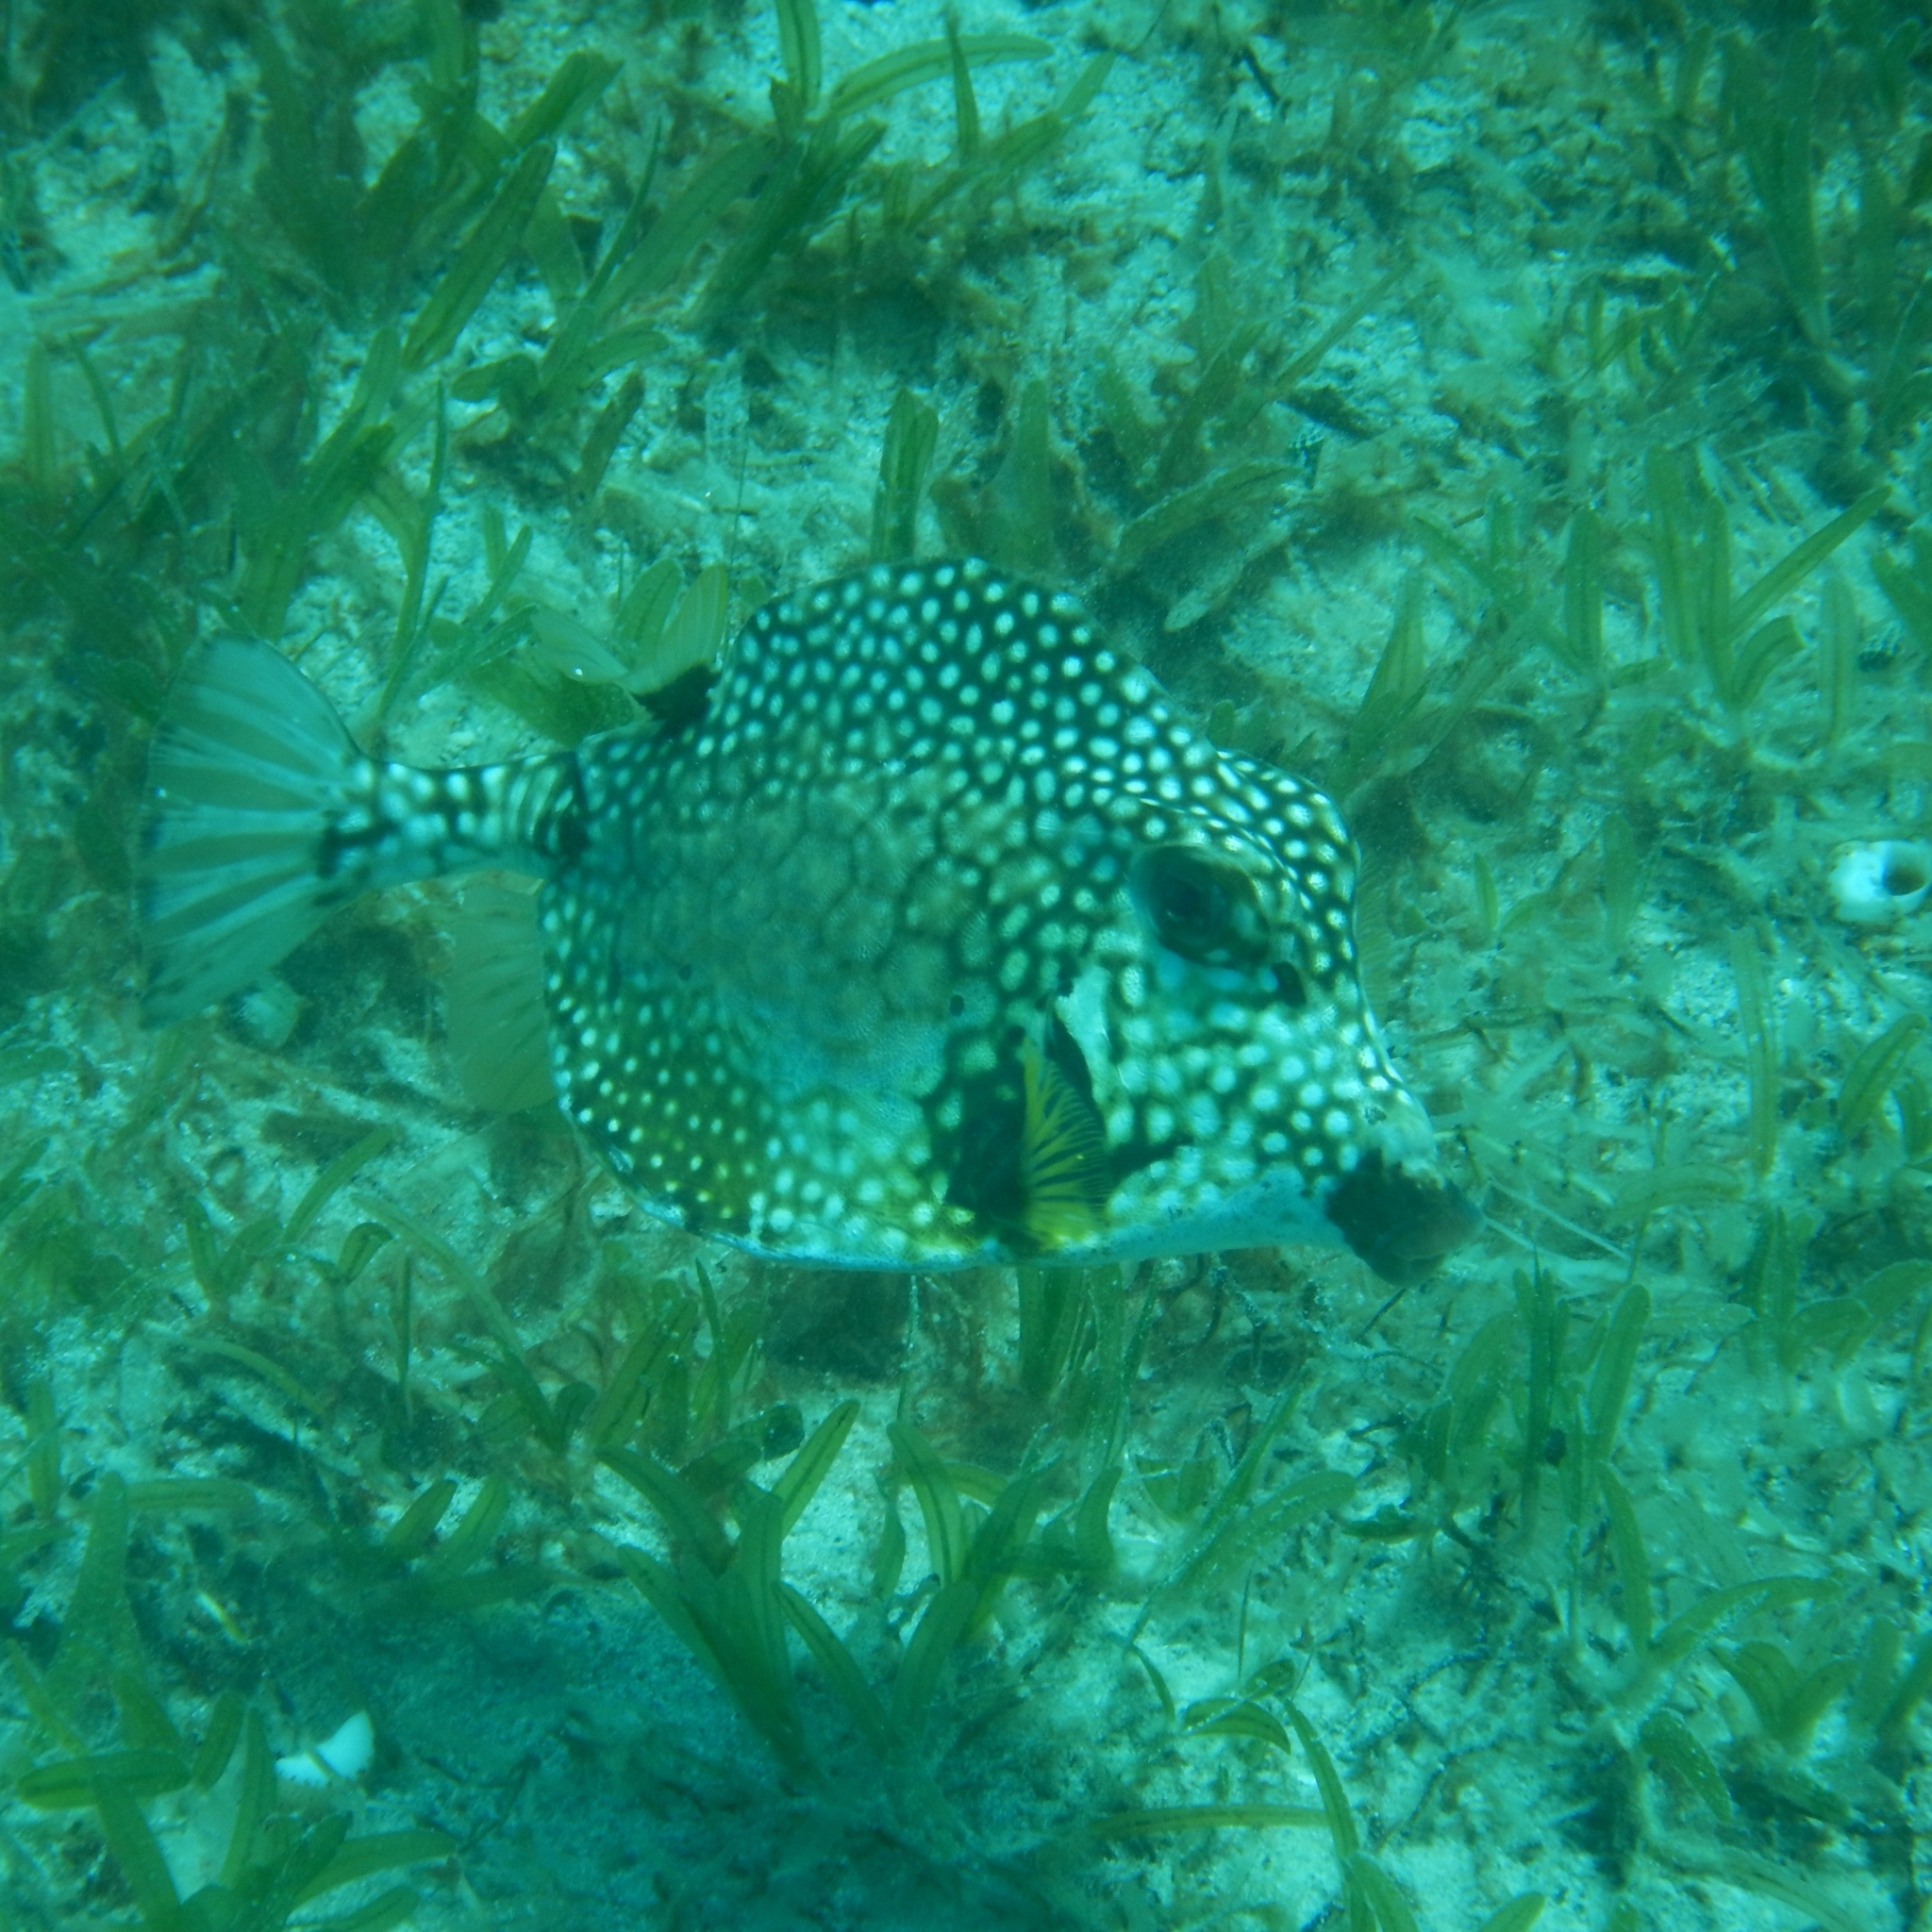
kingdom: Animalia
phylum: Chordata
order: Tetraodontiformes
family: Ostraciidae
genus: Lactophrys
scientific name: Lactophrys triqueter
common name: Smooth trunkfish
